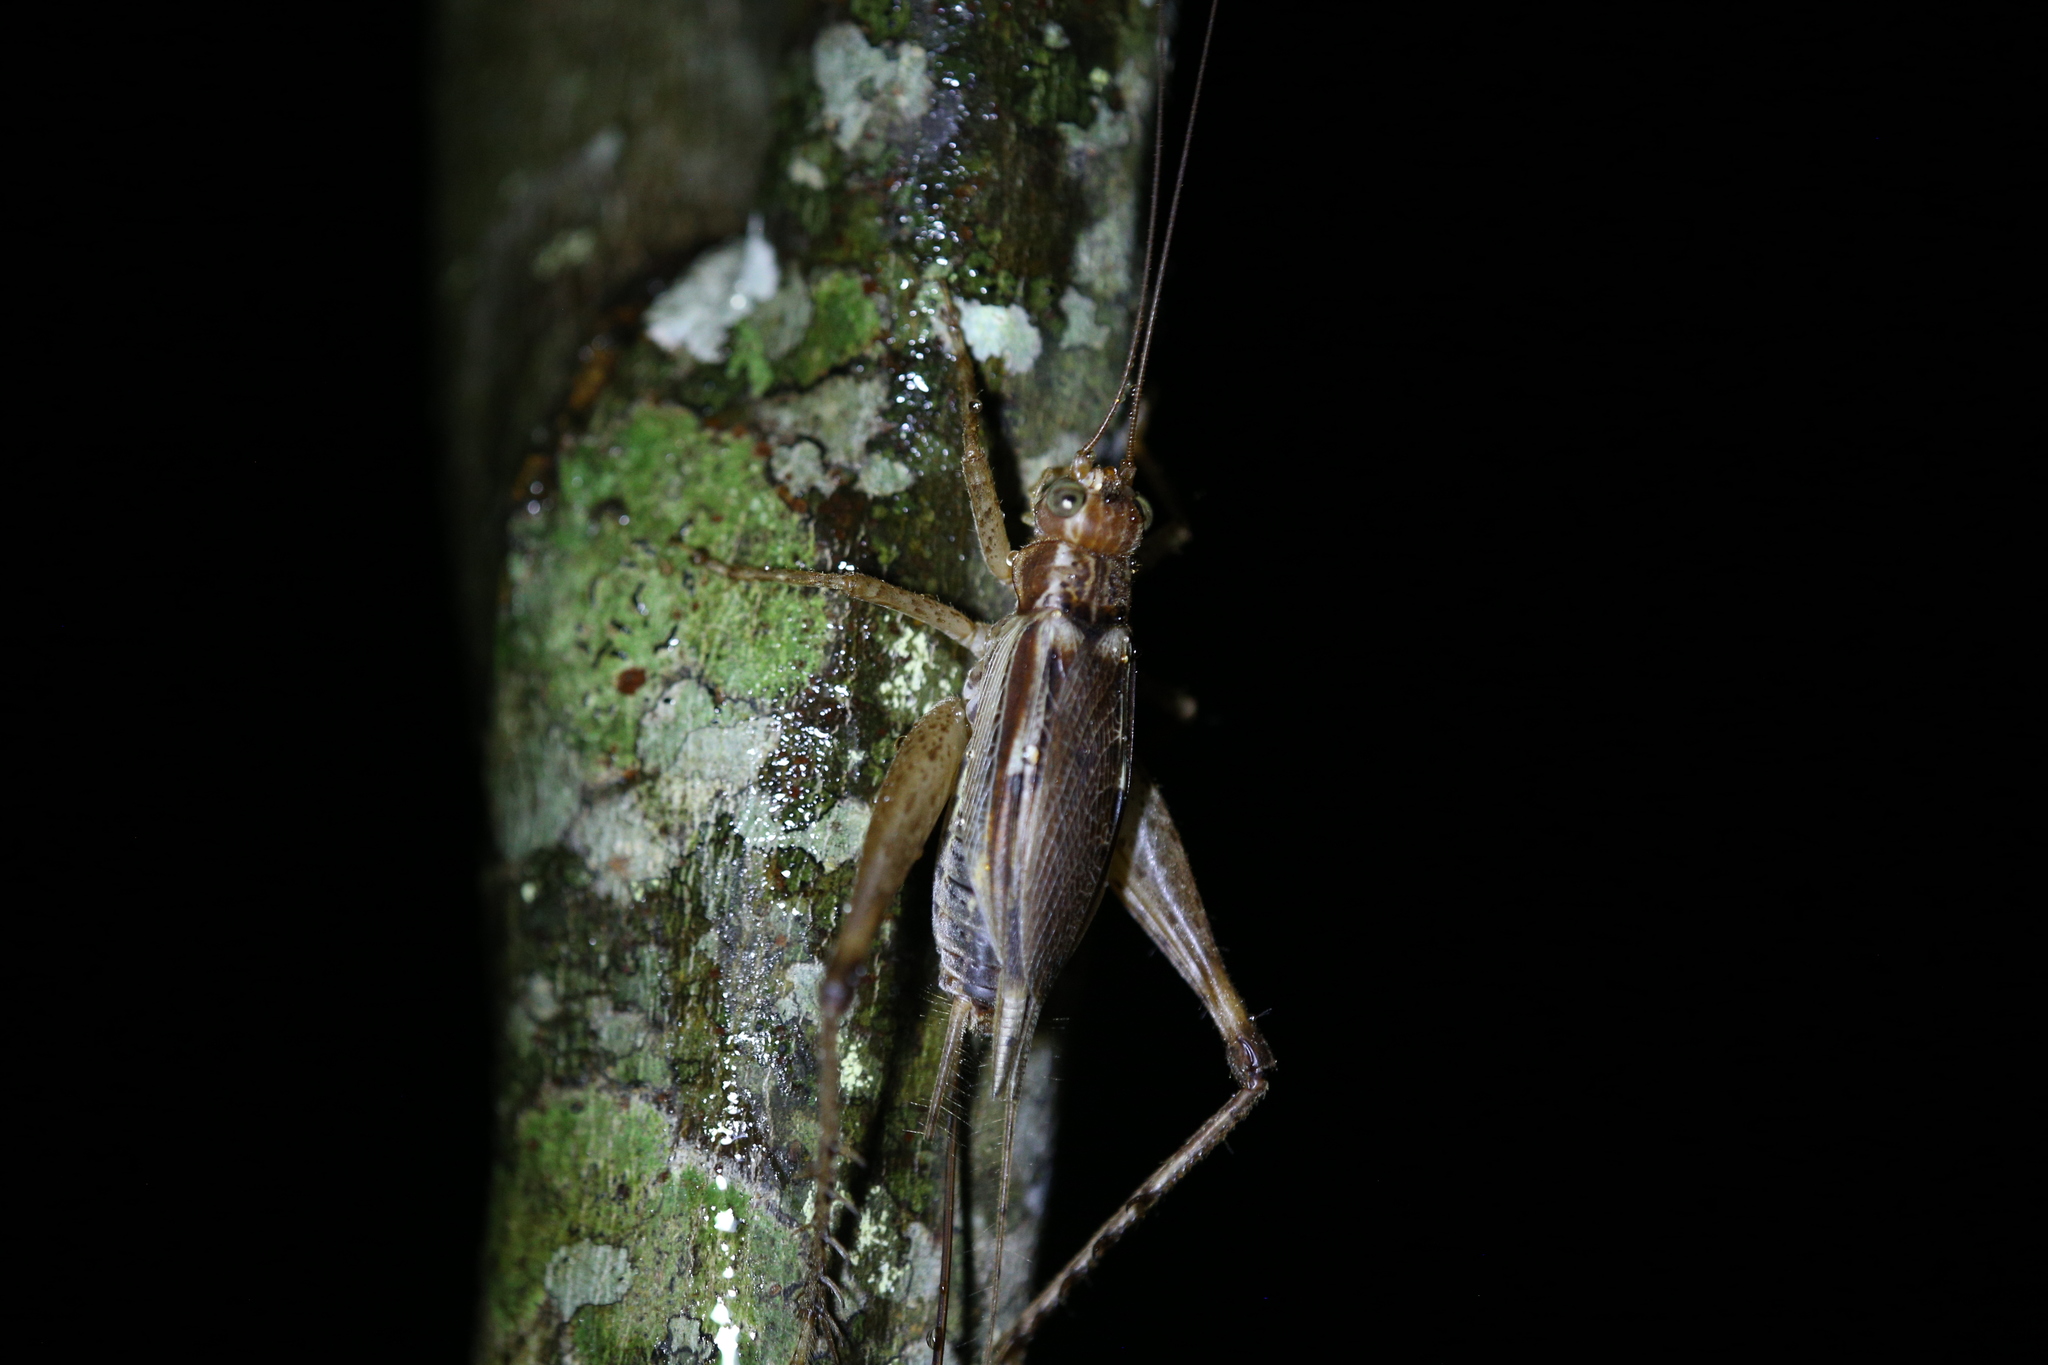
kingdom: Animalia
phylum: Arthropoda
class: Insecta
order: Orthoptera
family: Gryllidae
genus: Cardiodactylus
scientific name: Cardiodactylus novaeguineae
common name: Sad cricket
